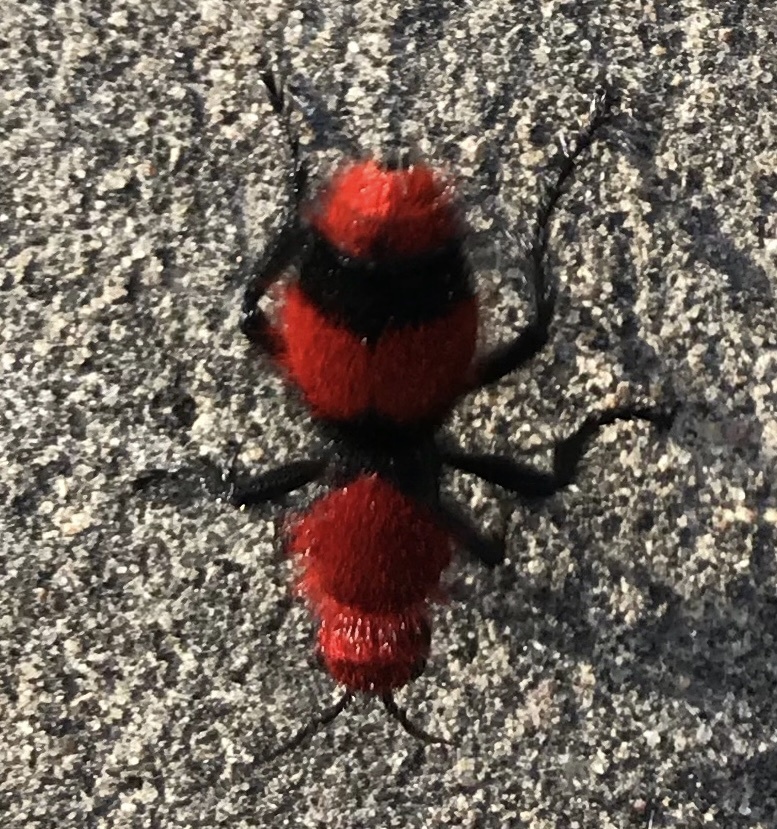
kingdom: Animalia
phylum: Arthropoda
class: Insecta
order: Hymenoptera
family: Mutillidae
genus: Dasymutilla
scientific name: Dasymutilla occidentalis
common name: Common eastern velvet ant
